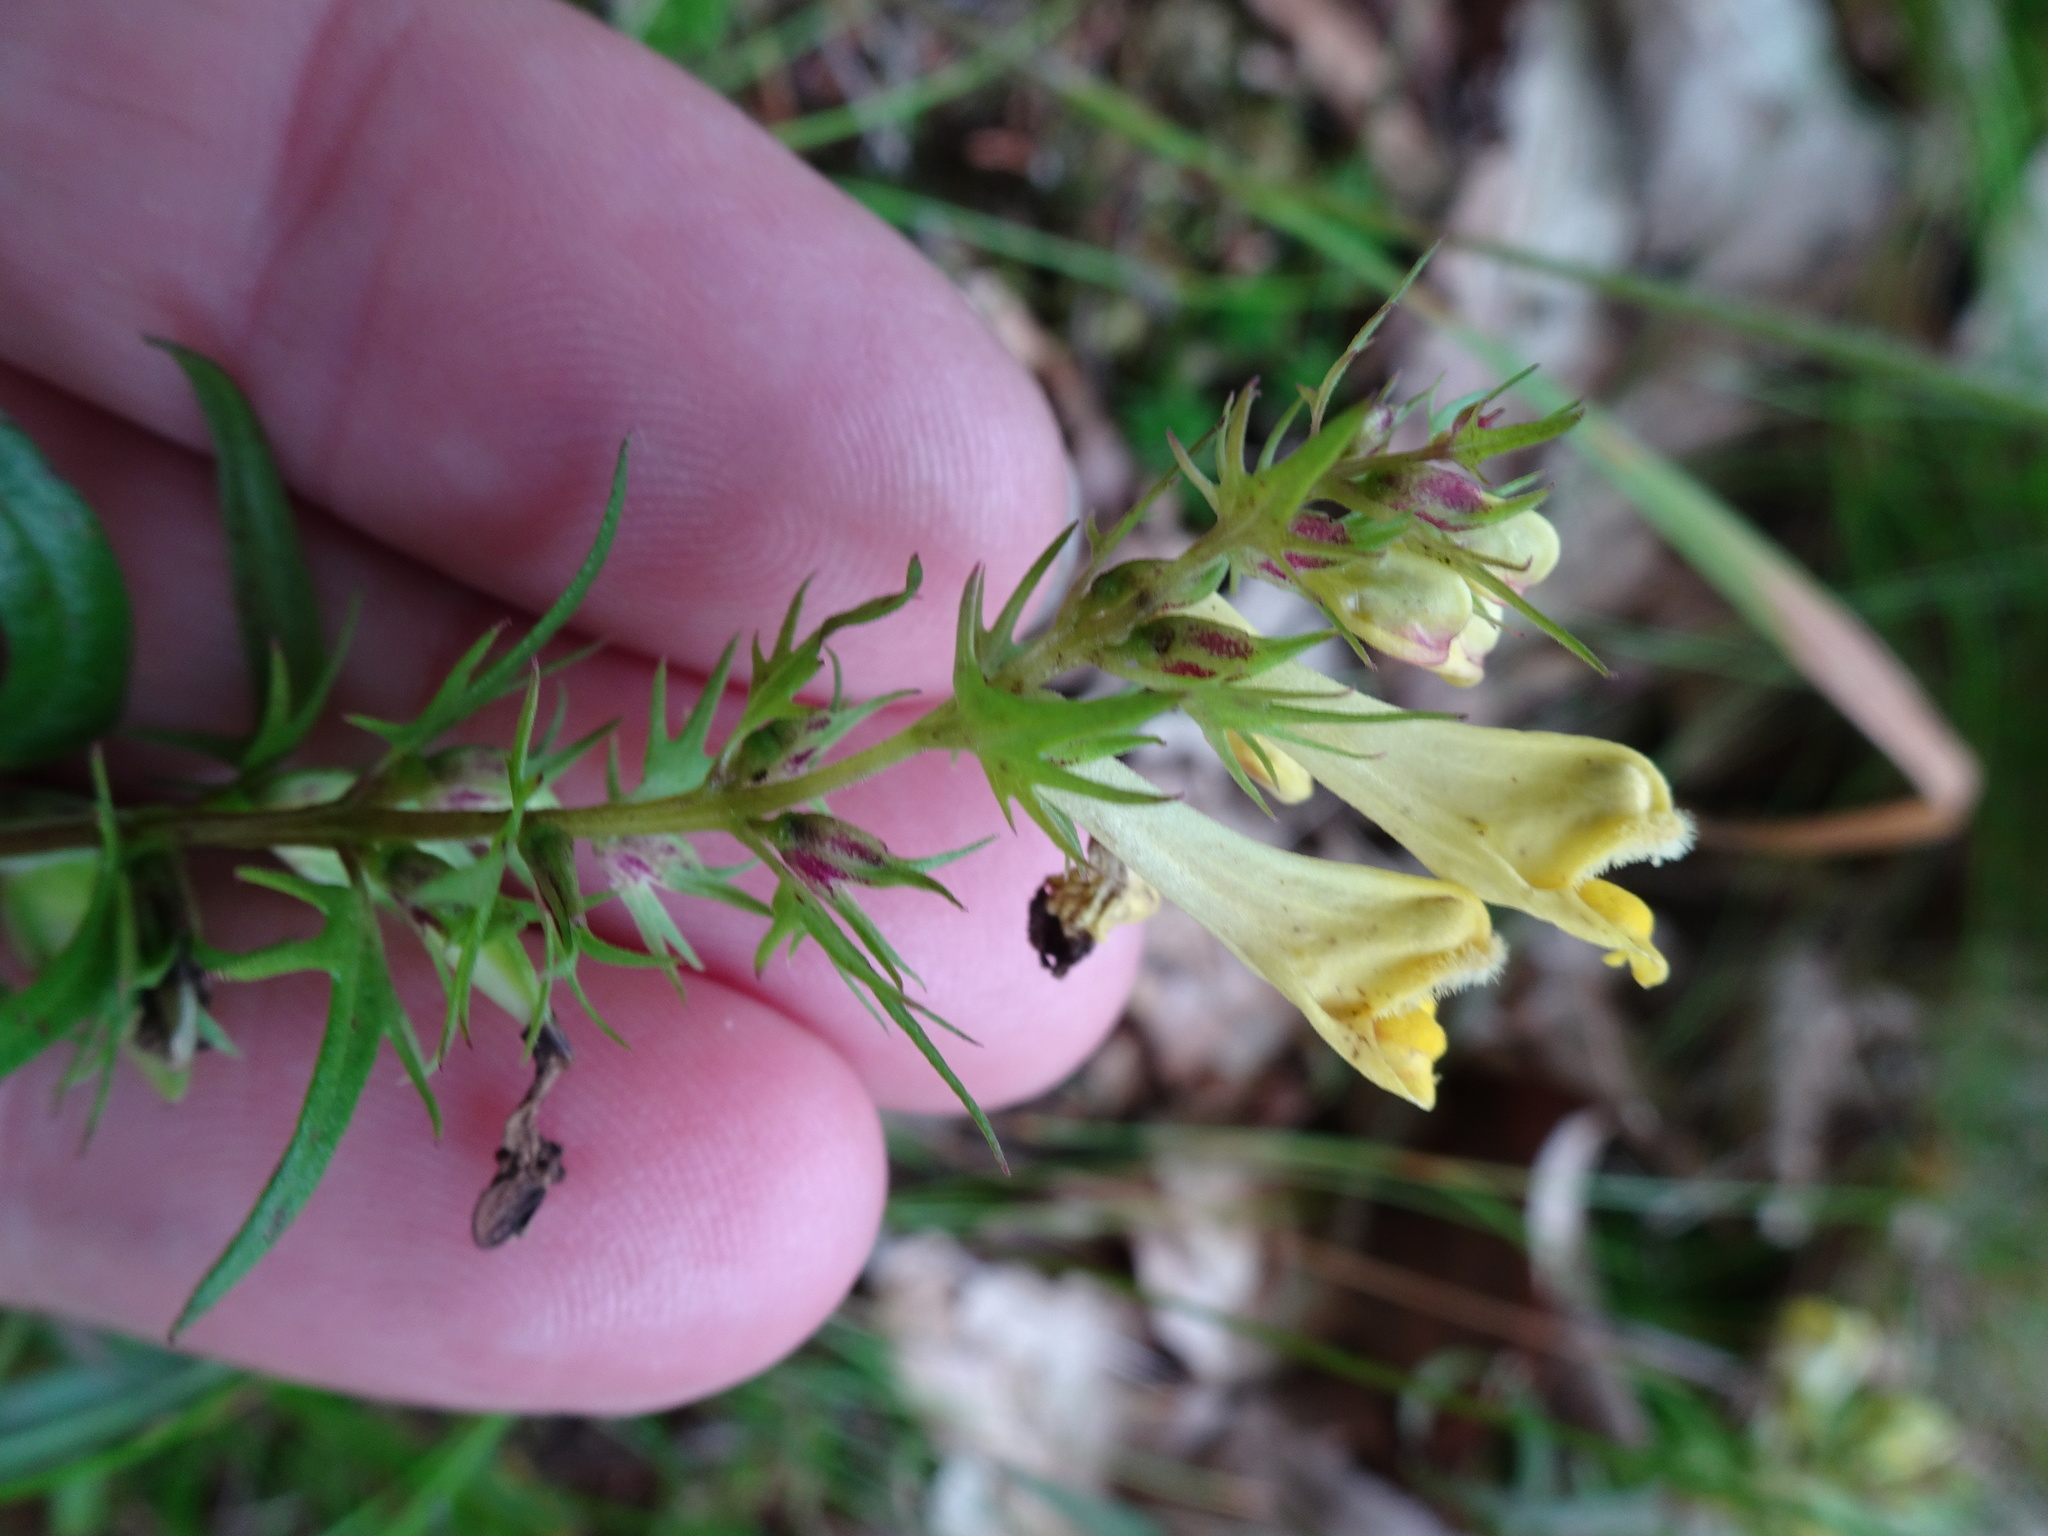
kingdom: Plantae
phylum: Tracheophyta
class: Magnoliopsida
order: Lamiales
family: Orobanchaceae
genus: Melampyrum
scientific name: Melampyrum pratense
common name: Common cow-wheat
